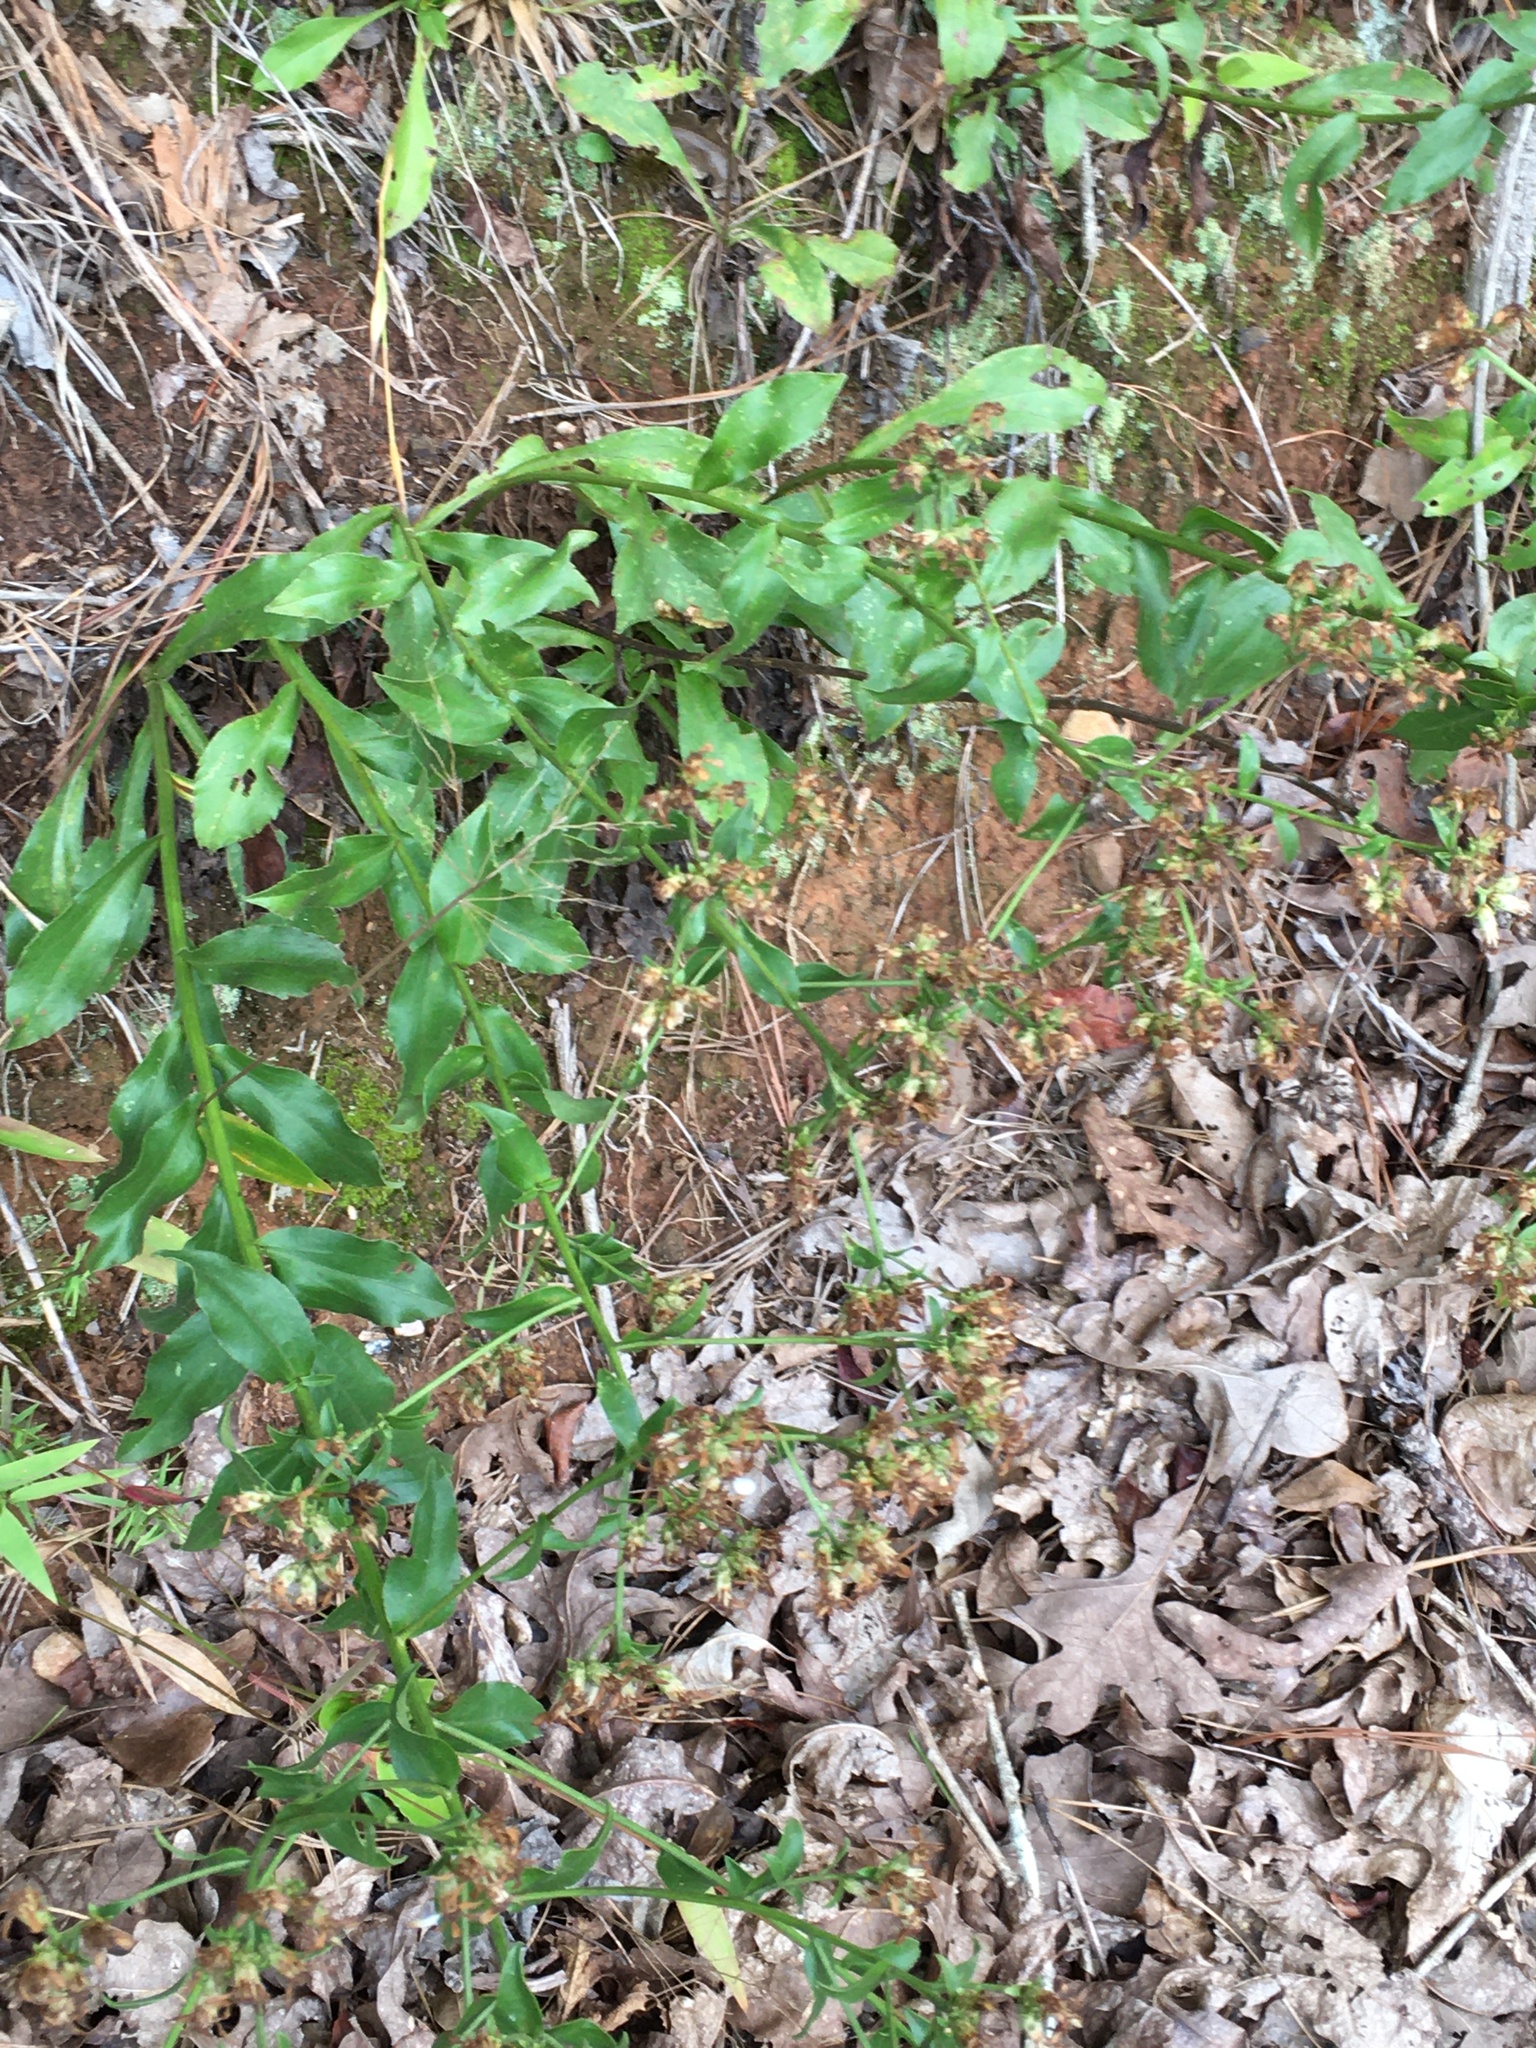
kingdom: Plantae
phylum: Tracheophyta
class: Magnoliopsida
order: Asterales
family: Asteraceae
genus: Sericocarpus
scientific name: Sericocarpus asteroides
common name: Toothed white-top aster
